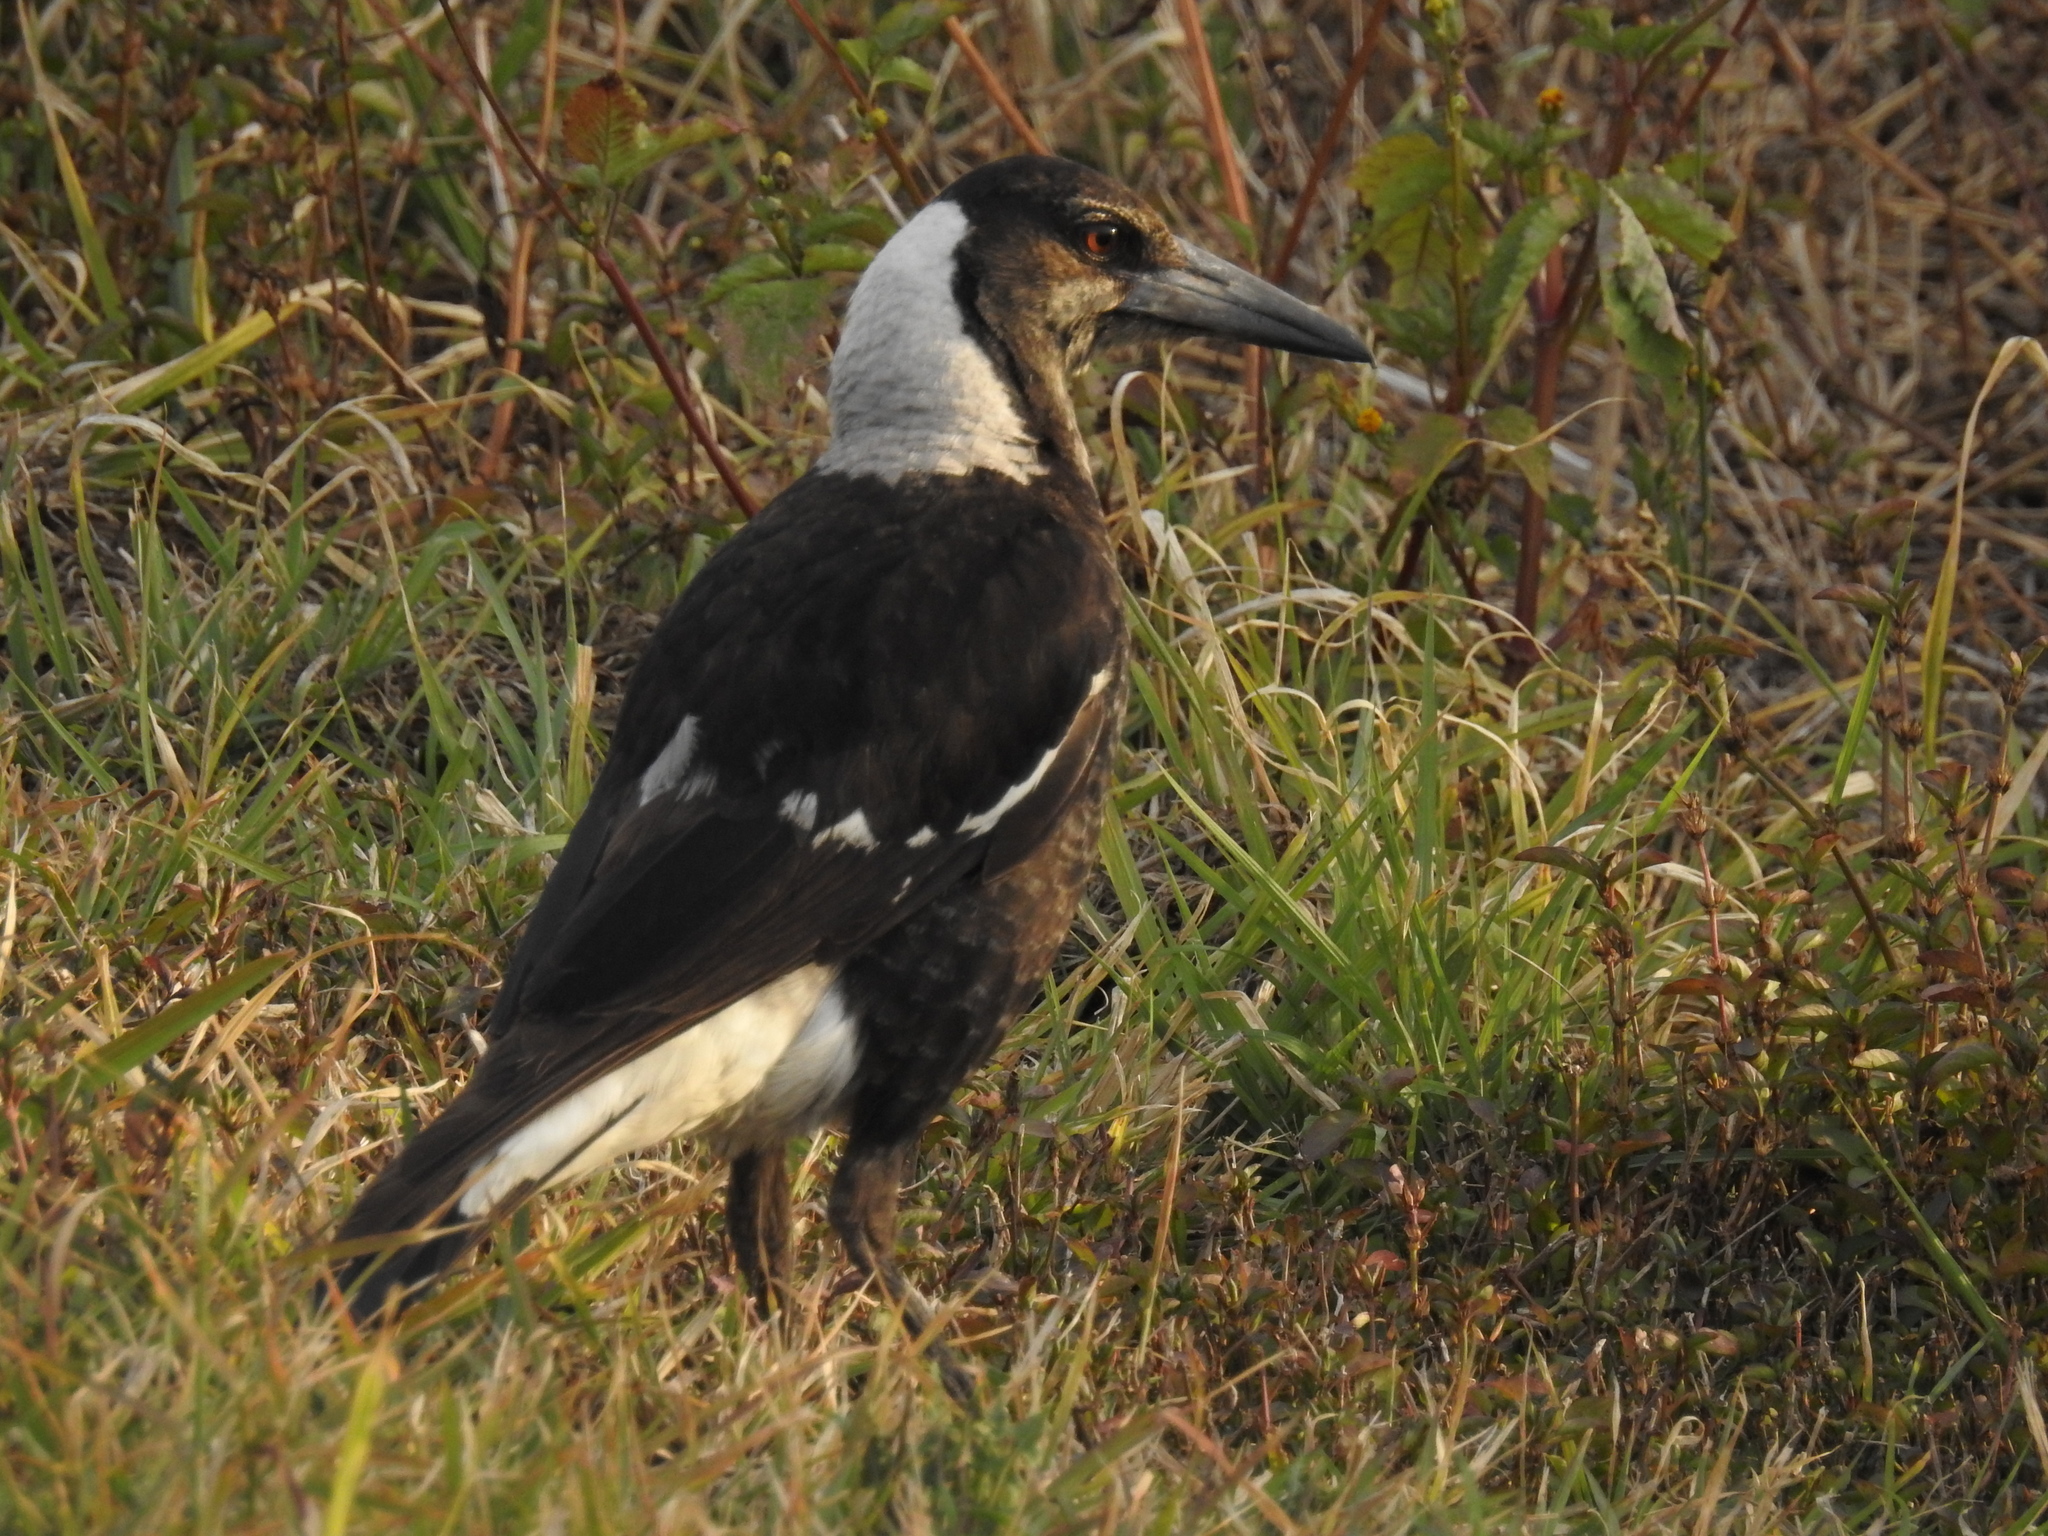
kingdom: Animalia
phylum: Chordata
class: Aves
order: Passeriformes
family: Cracticidae
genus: Gymnorhina
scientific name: Gymnorhina tibicen
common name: Australian magpie
